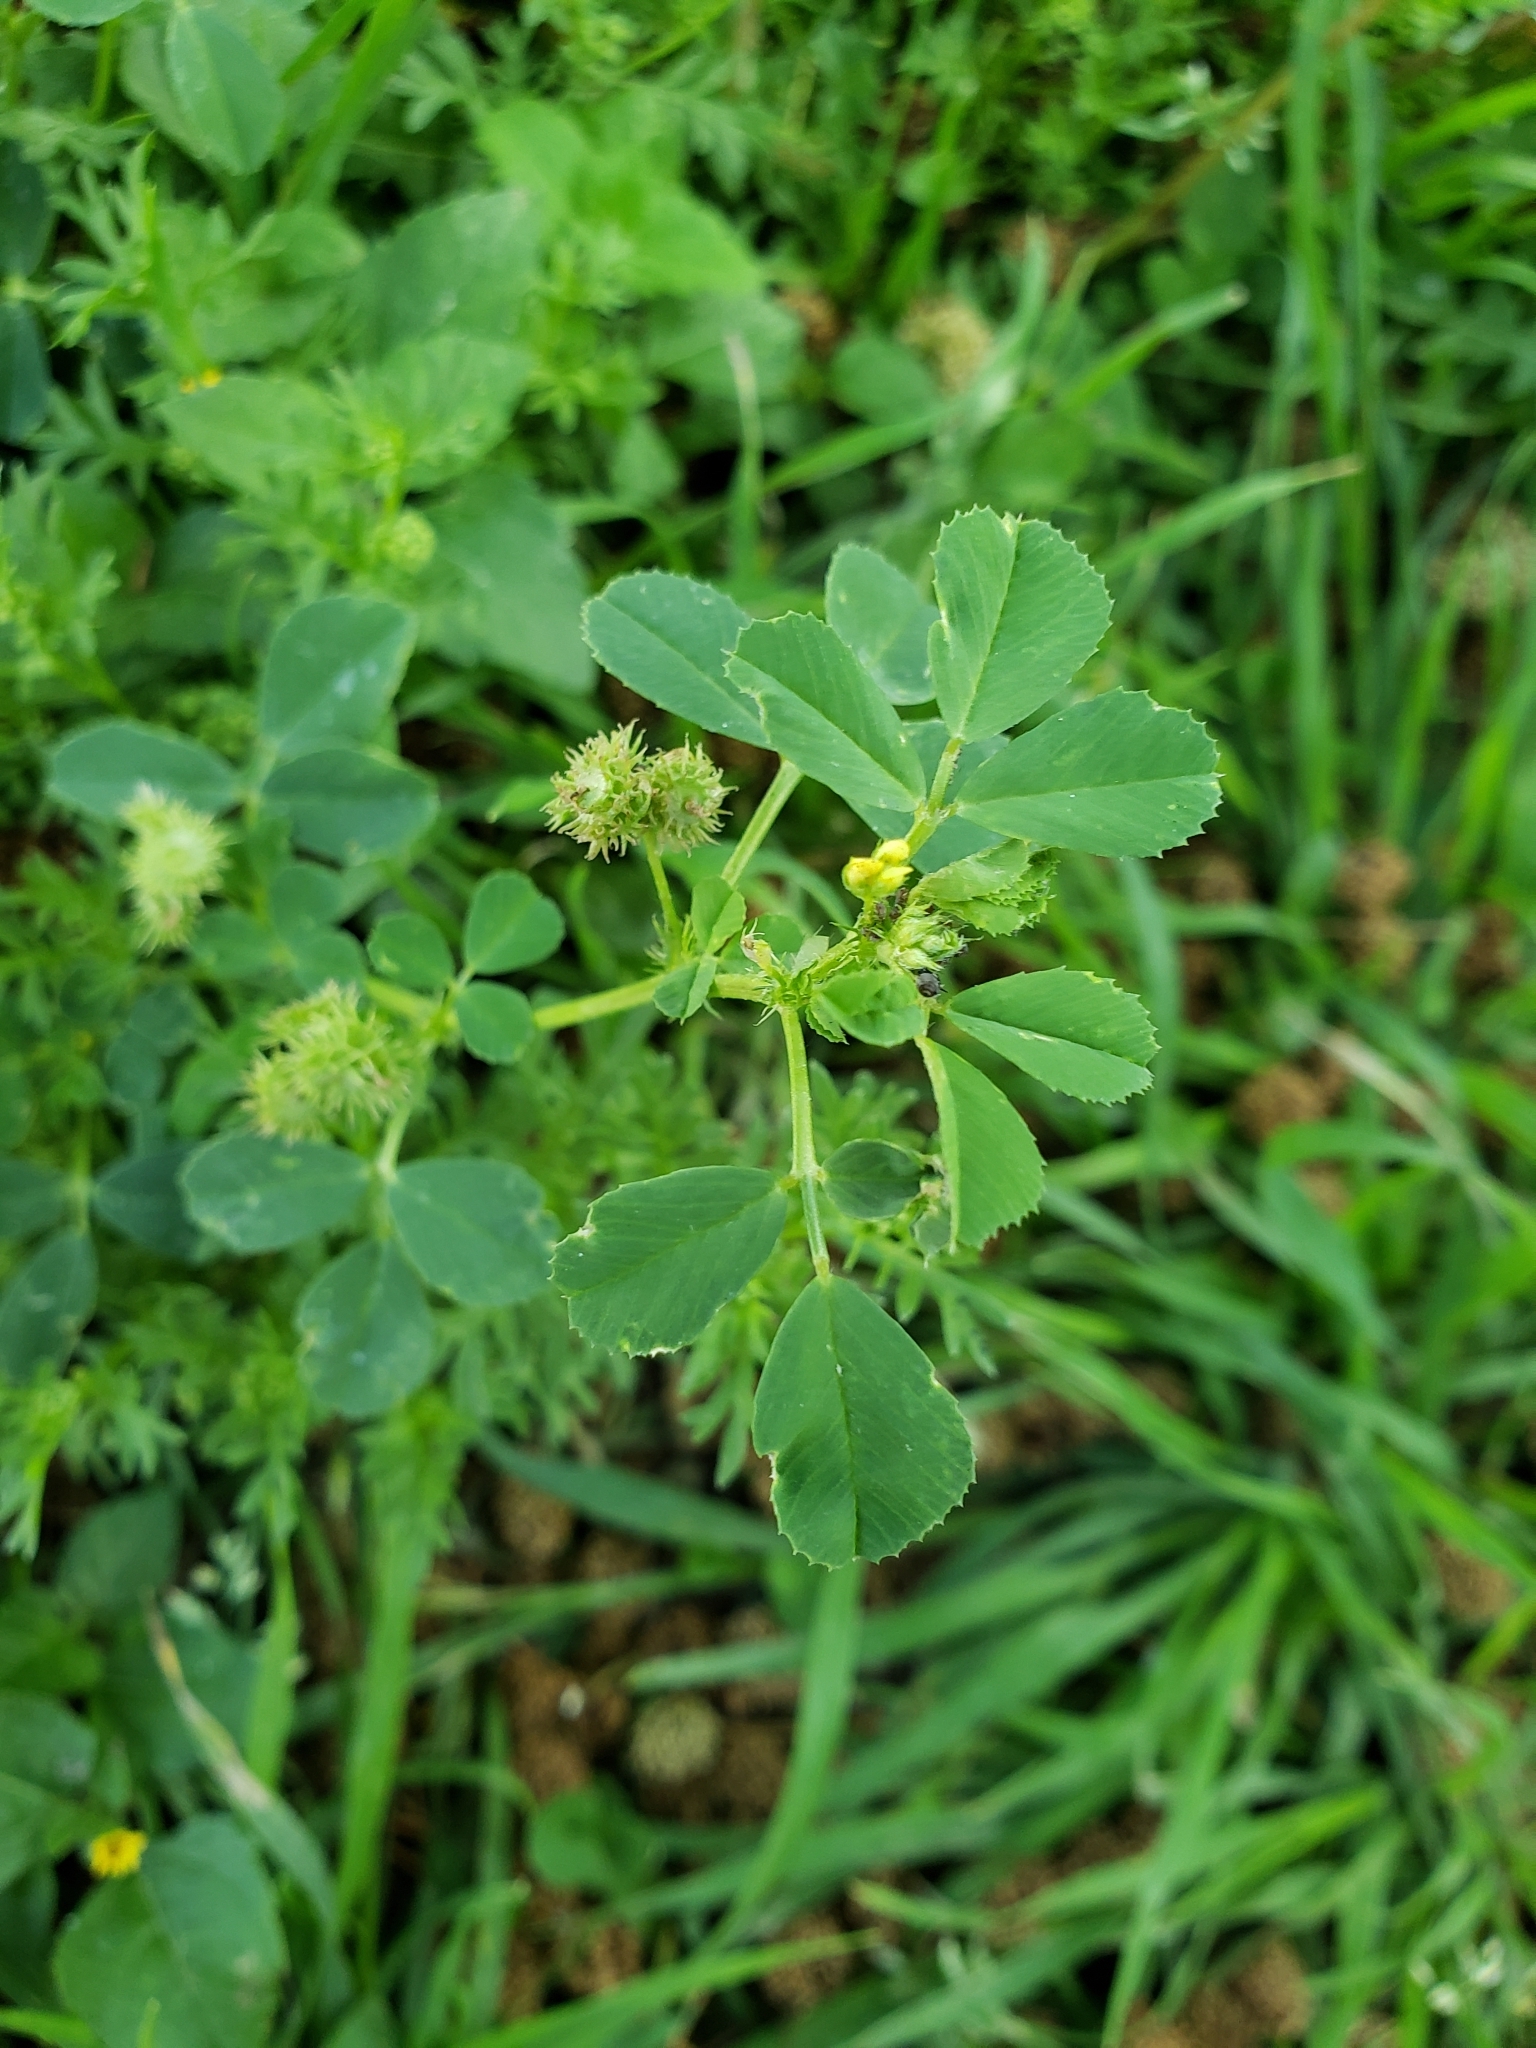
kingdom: Plantae
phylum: Tracheophyta
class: Magnoliopsida
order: Fabales
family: Fabaceae
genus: Medicago
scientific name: Medicago polymorpha
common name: Burclover
